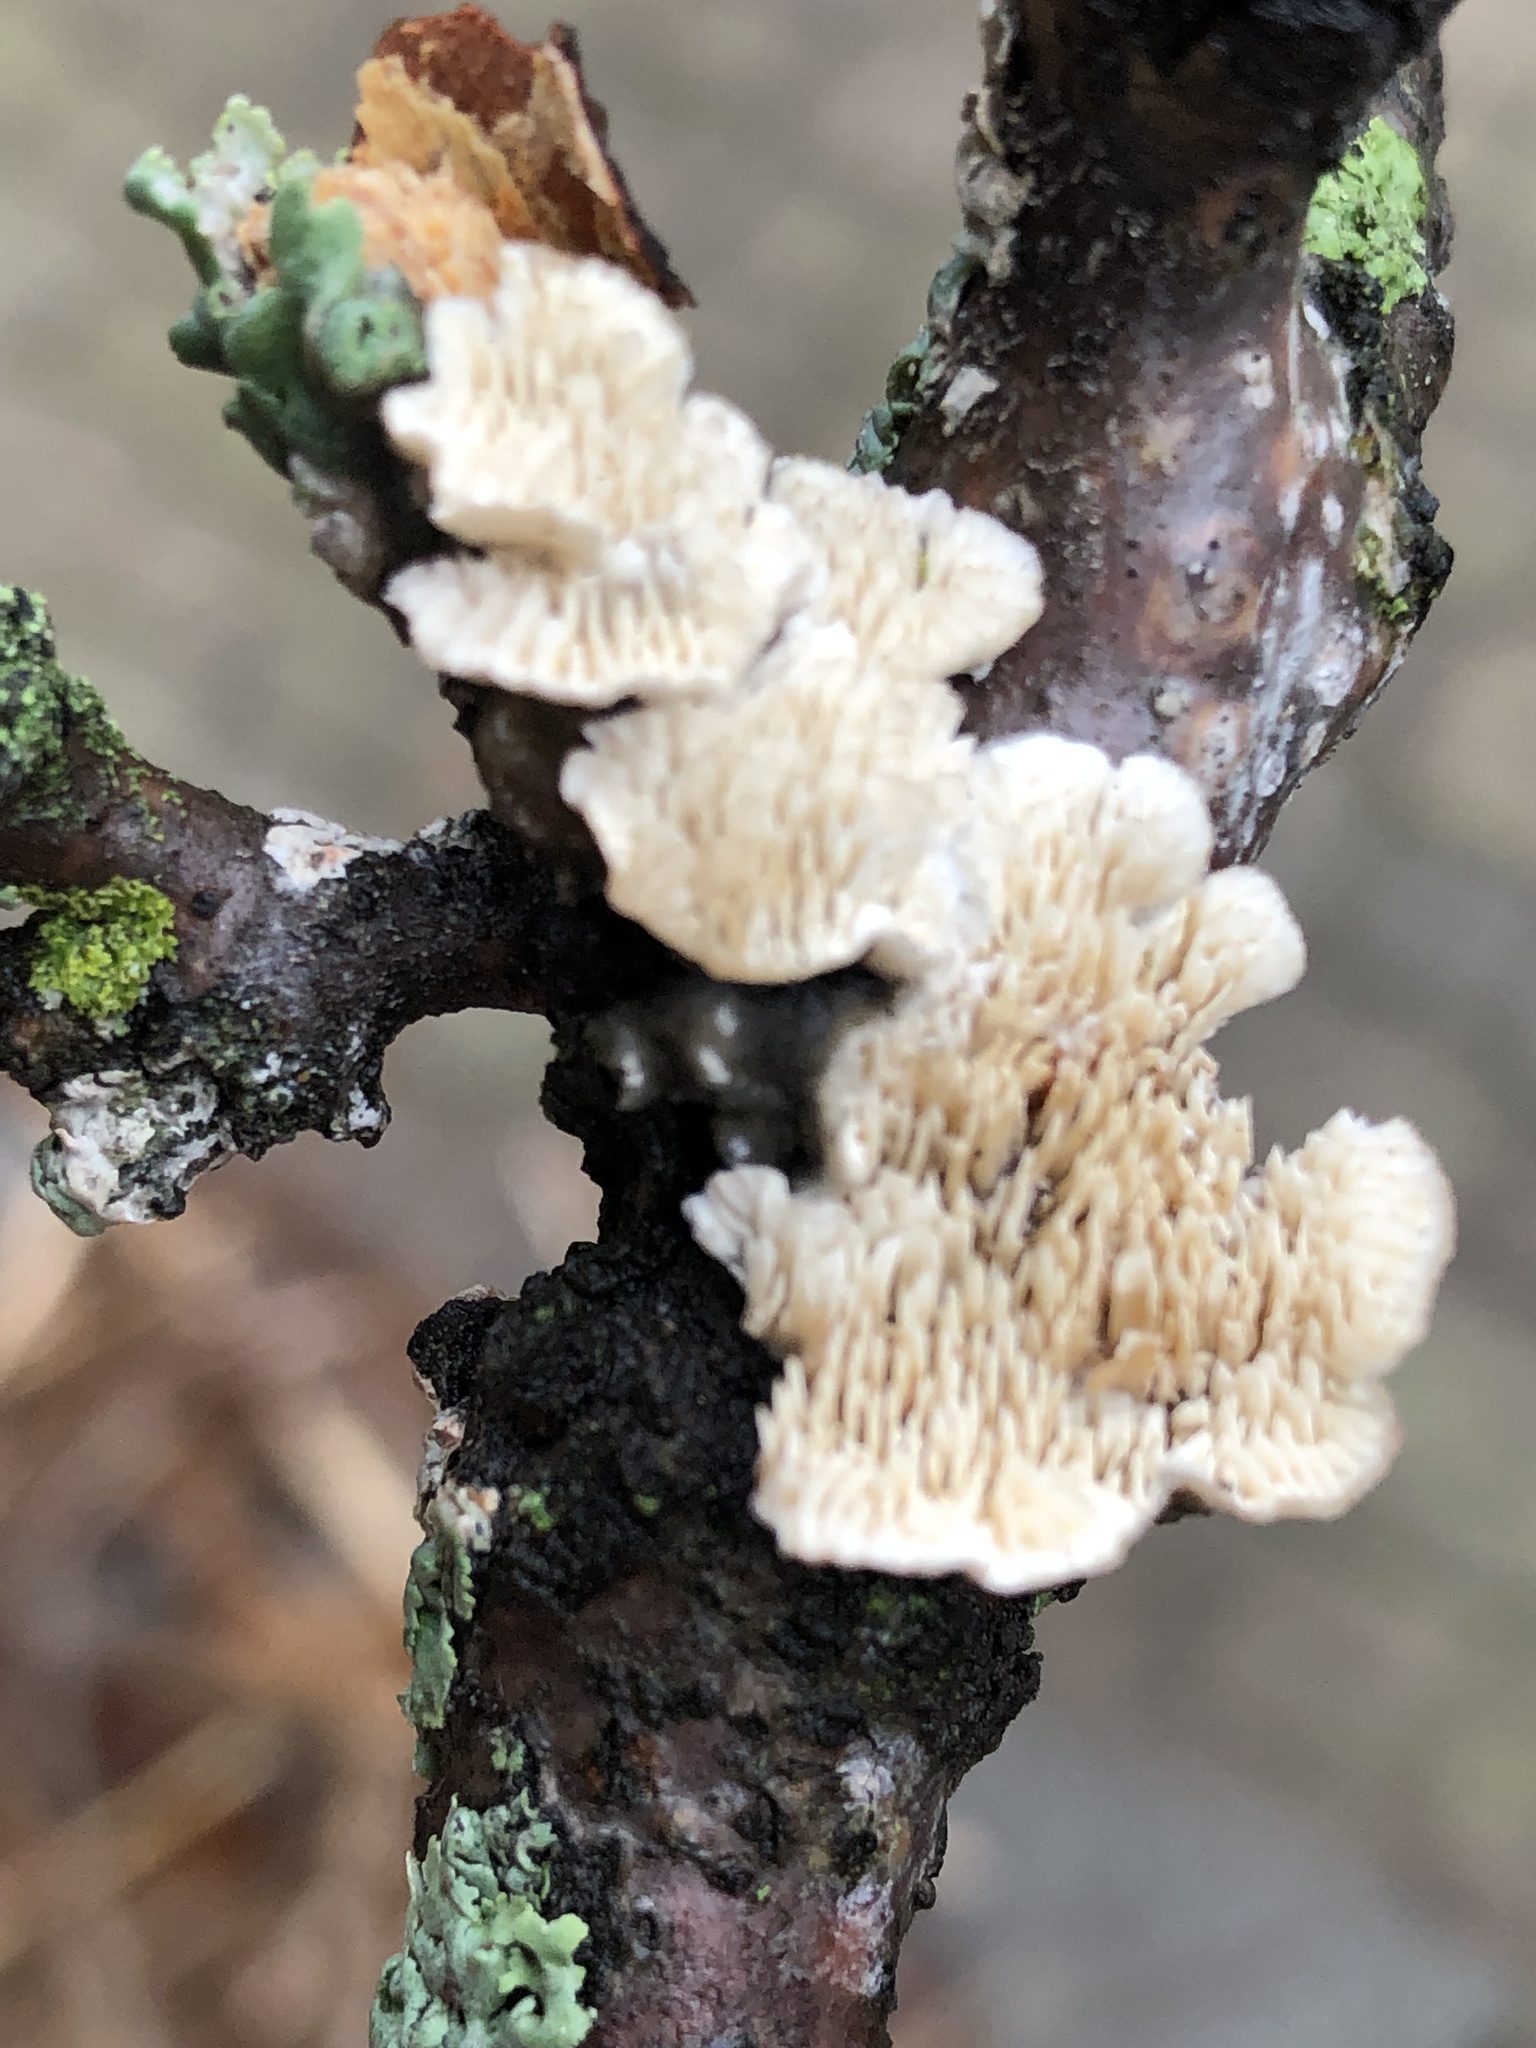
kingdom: Fungi
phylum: Basidiomycota
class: Agaricomycetes
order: Polyporales
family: Irpicaceae
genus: Irpex
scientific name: Irpex lacteus
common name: Milk-white toothed polypore
